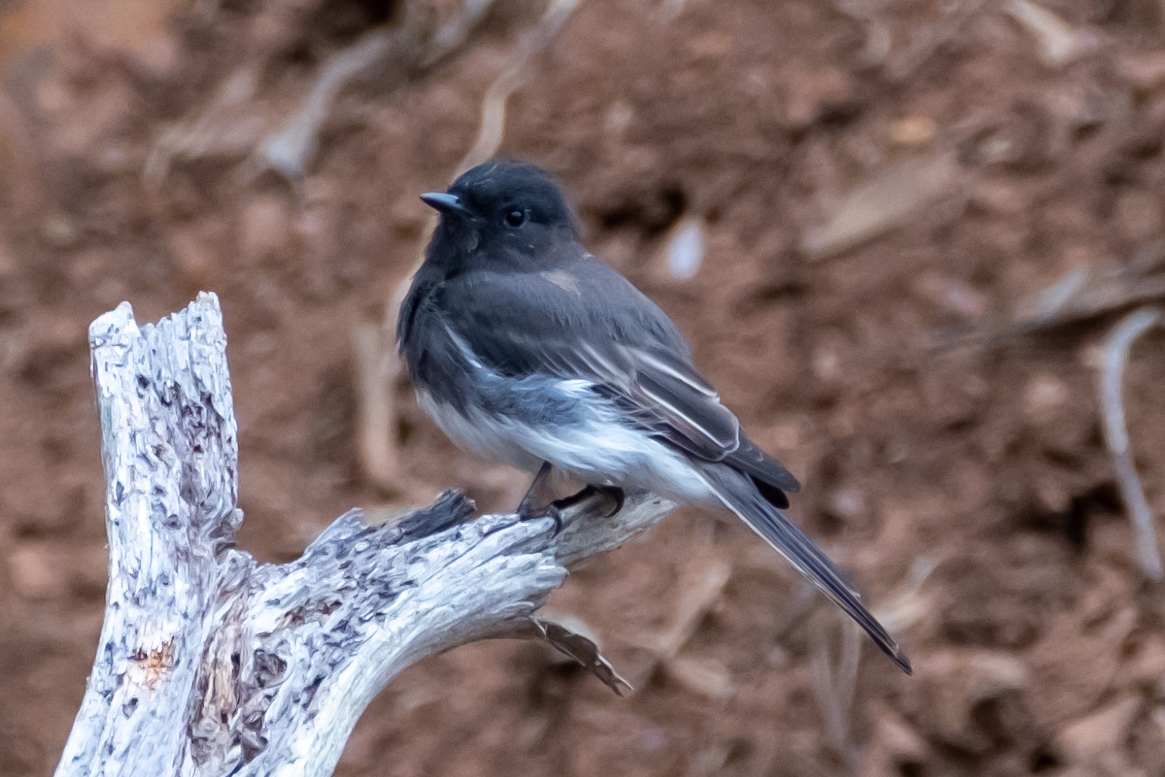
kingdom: Animalia
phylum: Chordata
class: Aves
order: Passeriformes
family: Tyrannidae
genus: Sayornis
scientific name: Sayornis nigricans
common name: Black phoebe
